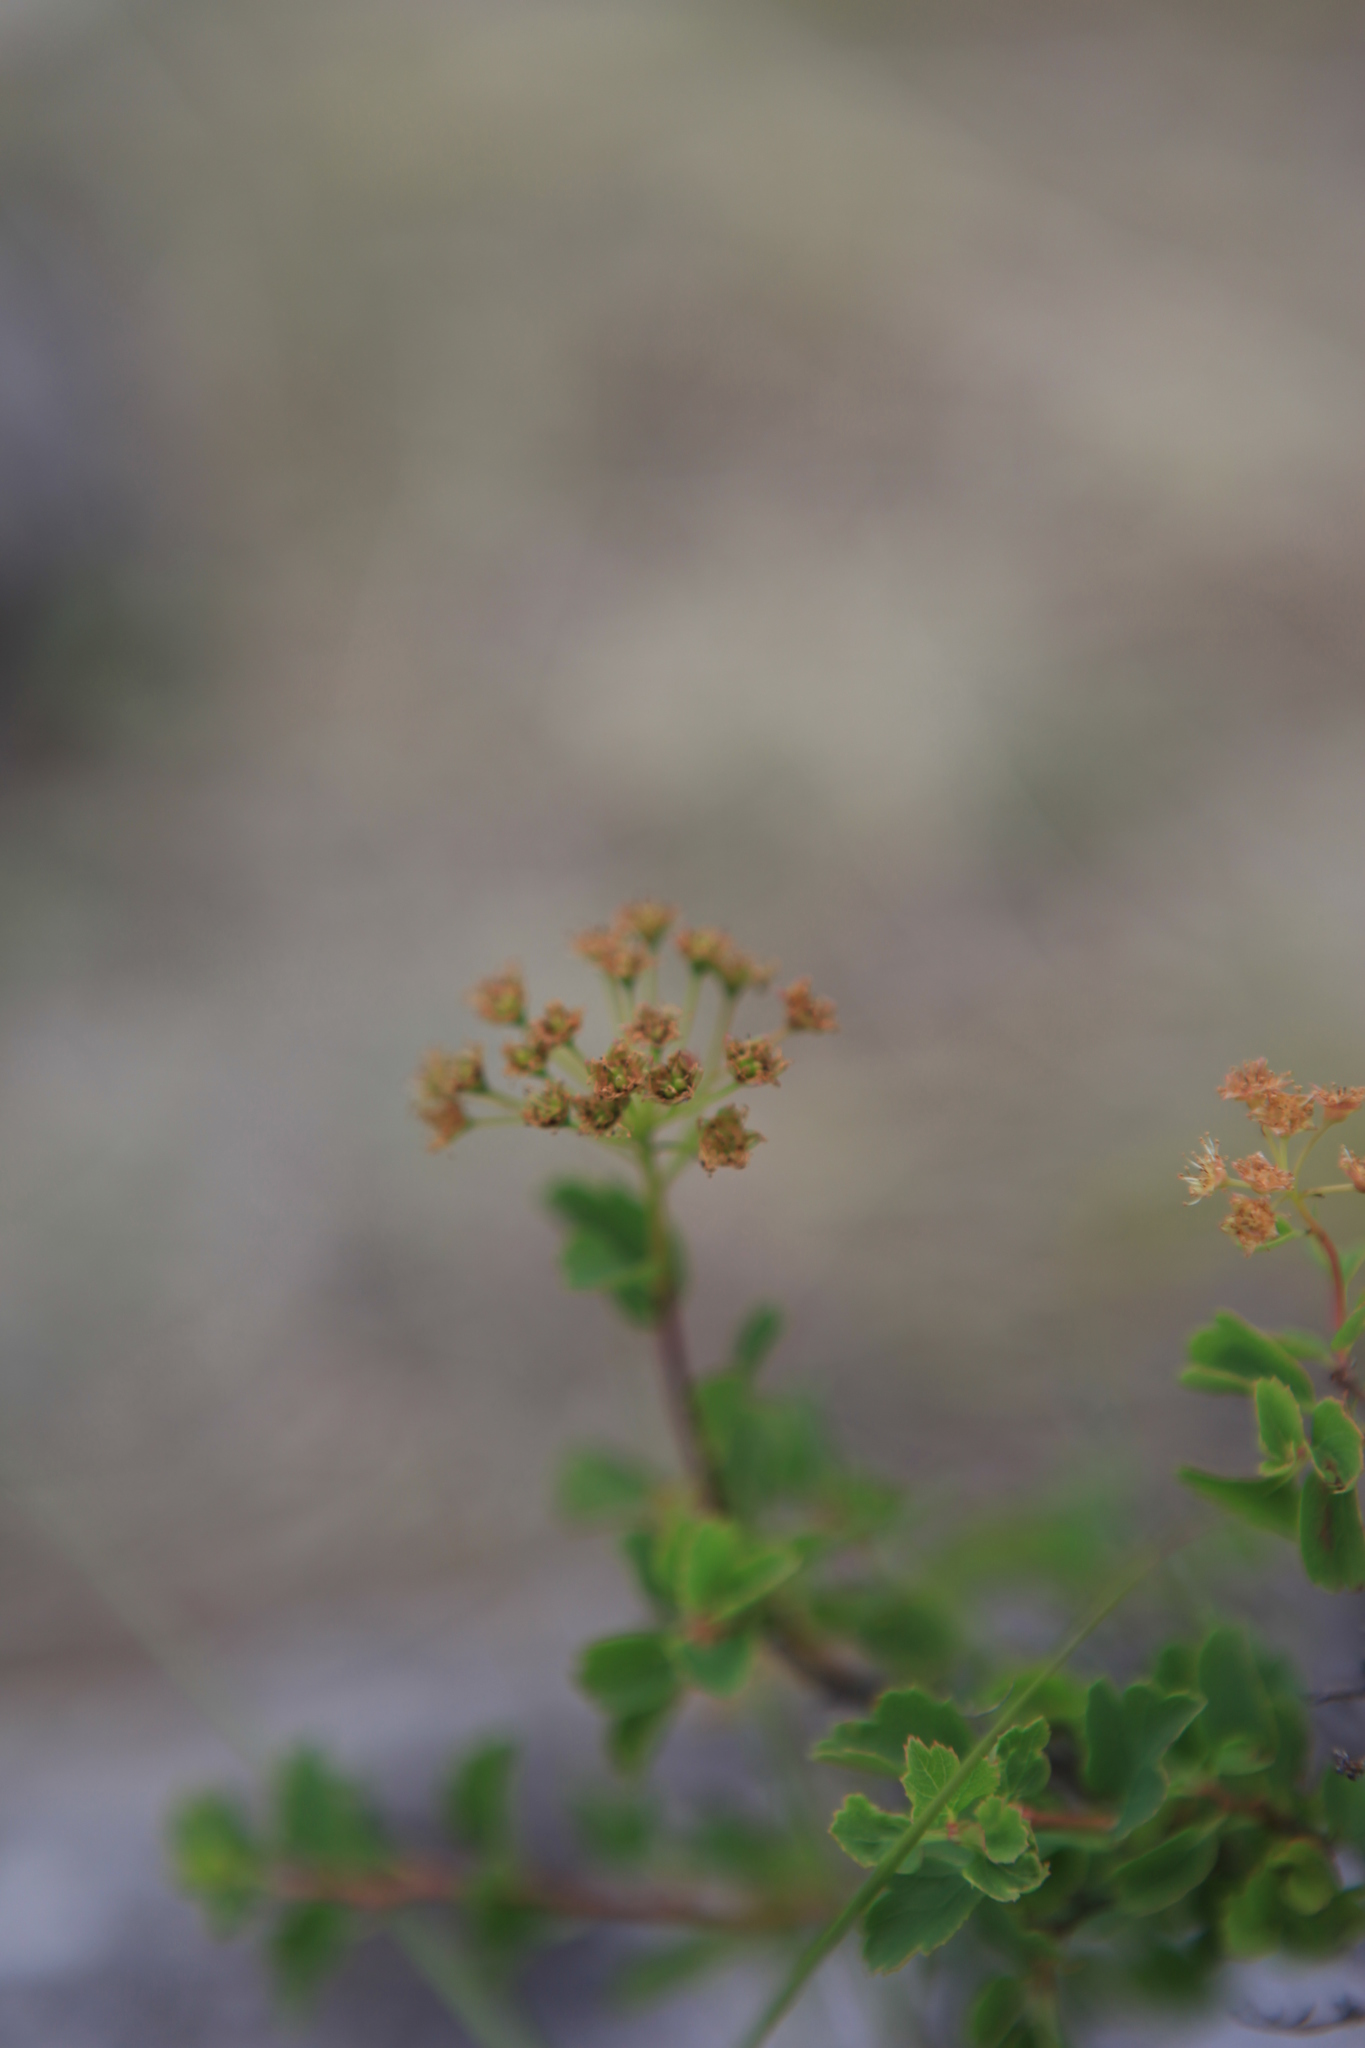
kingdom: Plantae
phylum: Tracheophyta
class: Magnoliopsida
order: Rosales
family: Rosaceae
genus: Spiraea
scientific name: Spiraea trilobata
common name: Asian meadowsweet
